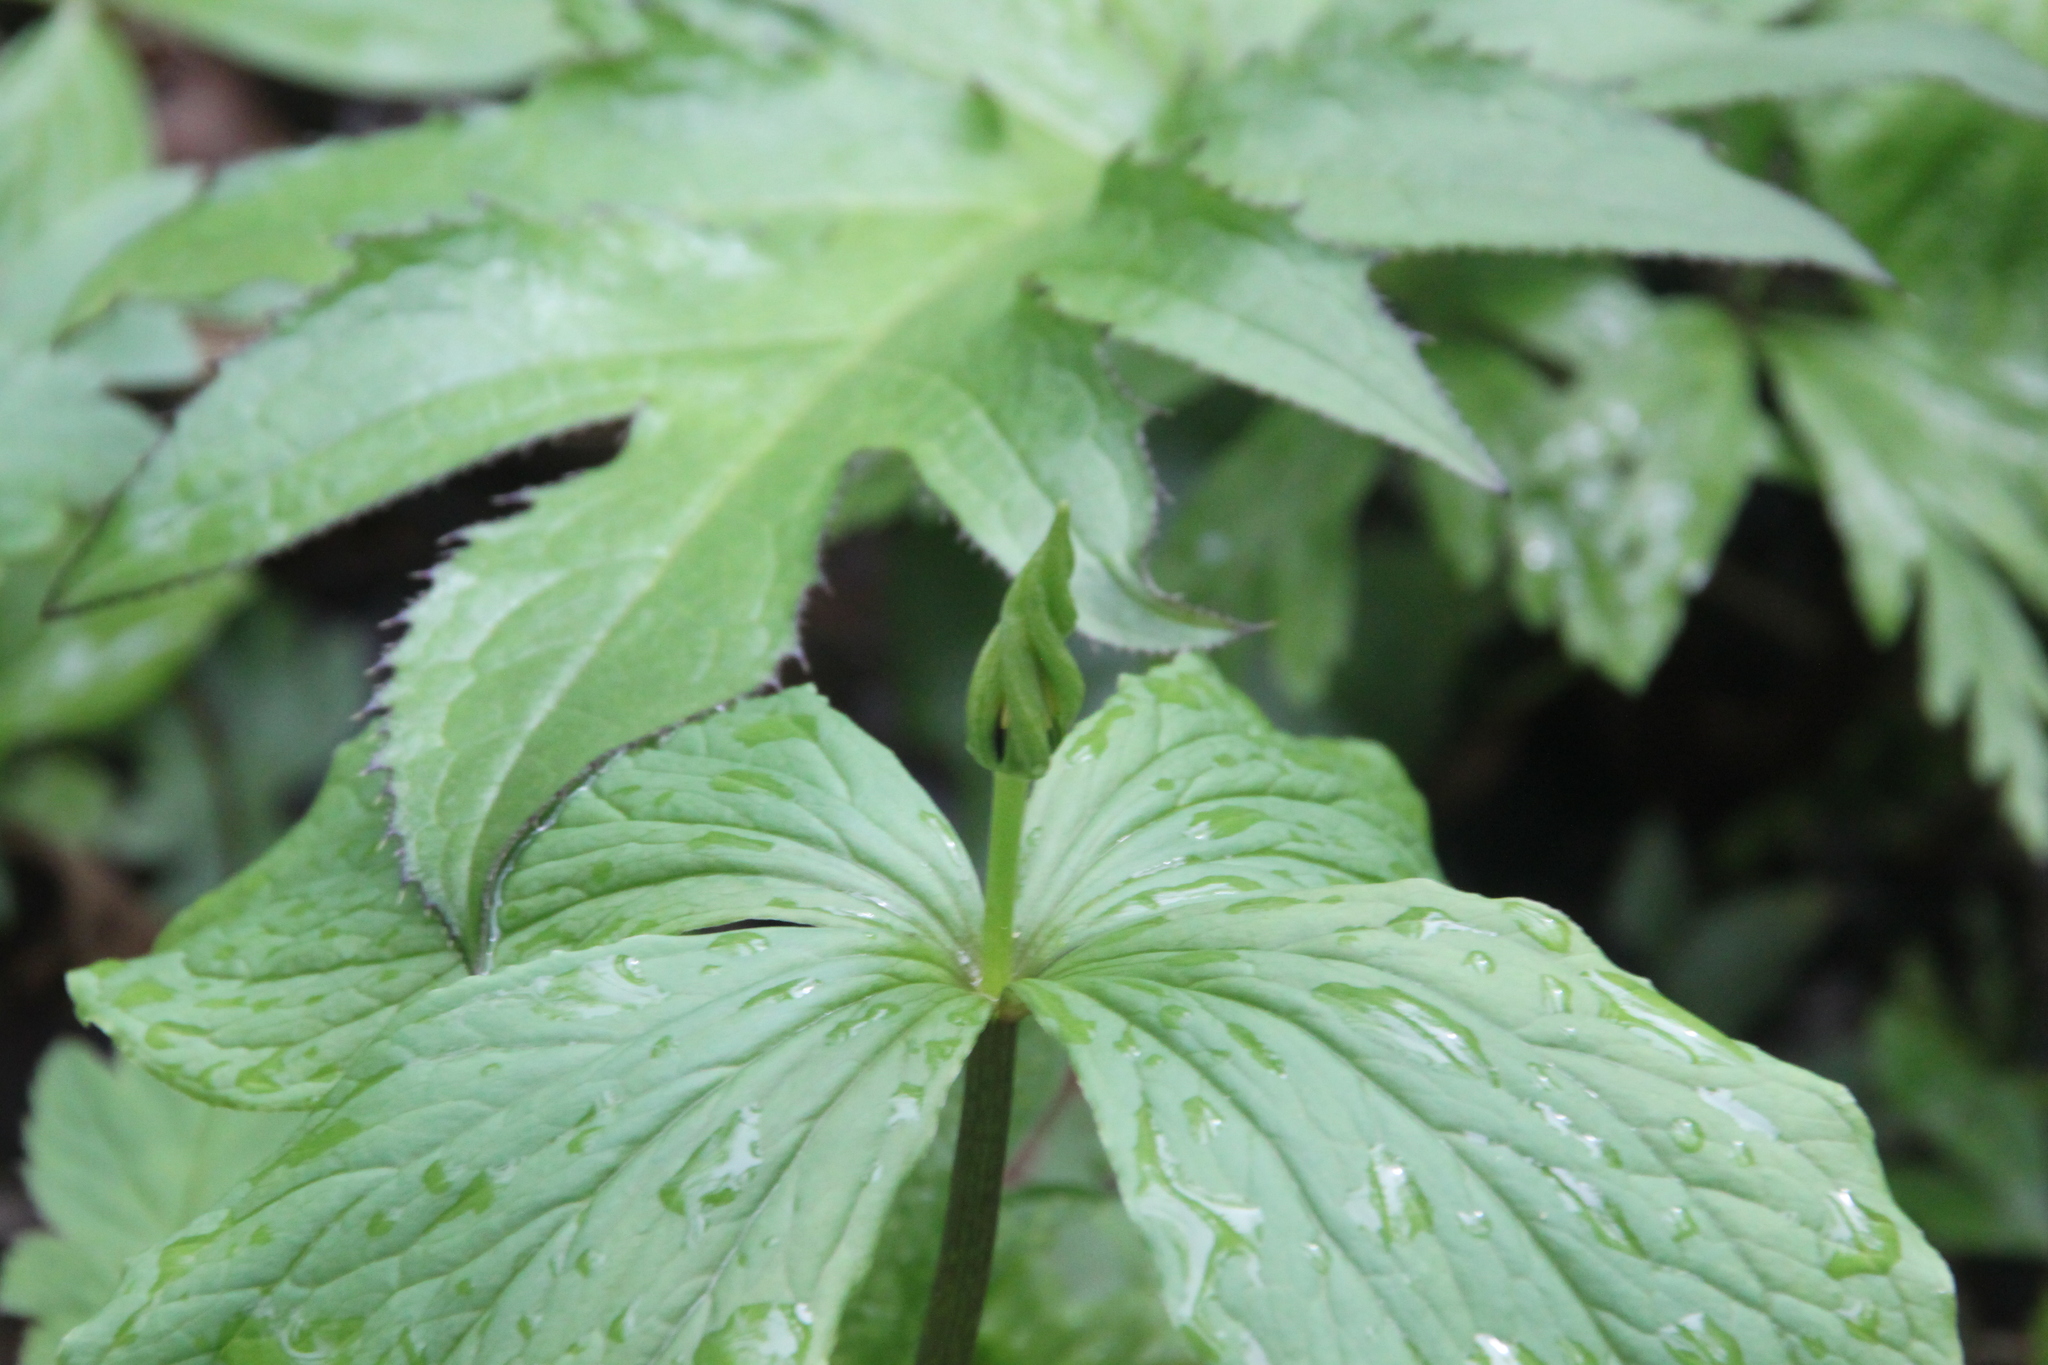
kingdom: Plantae
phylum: Tracheophyta
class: Liliopsida
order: Liliales
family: Melanthiaceae
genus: Paris
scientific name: Paris quadrifolia
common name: Herb-paris
